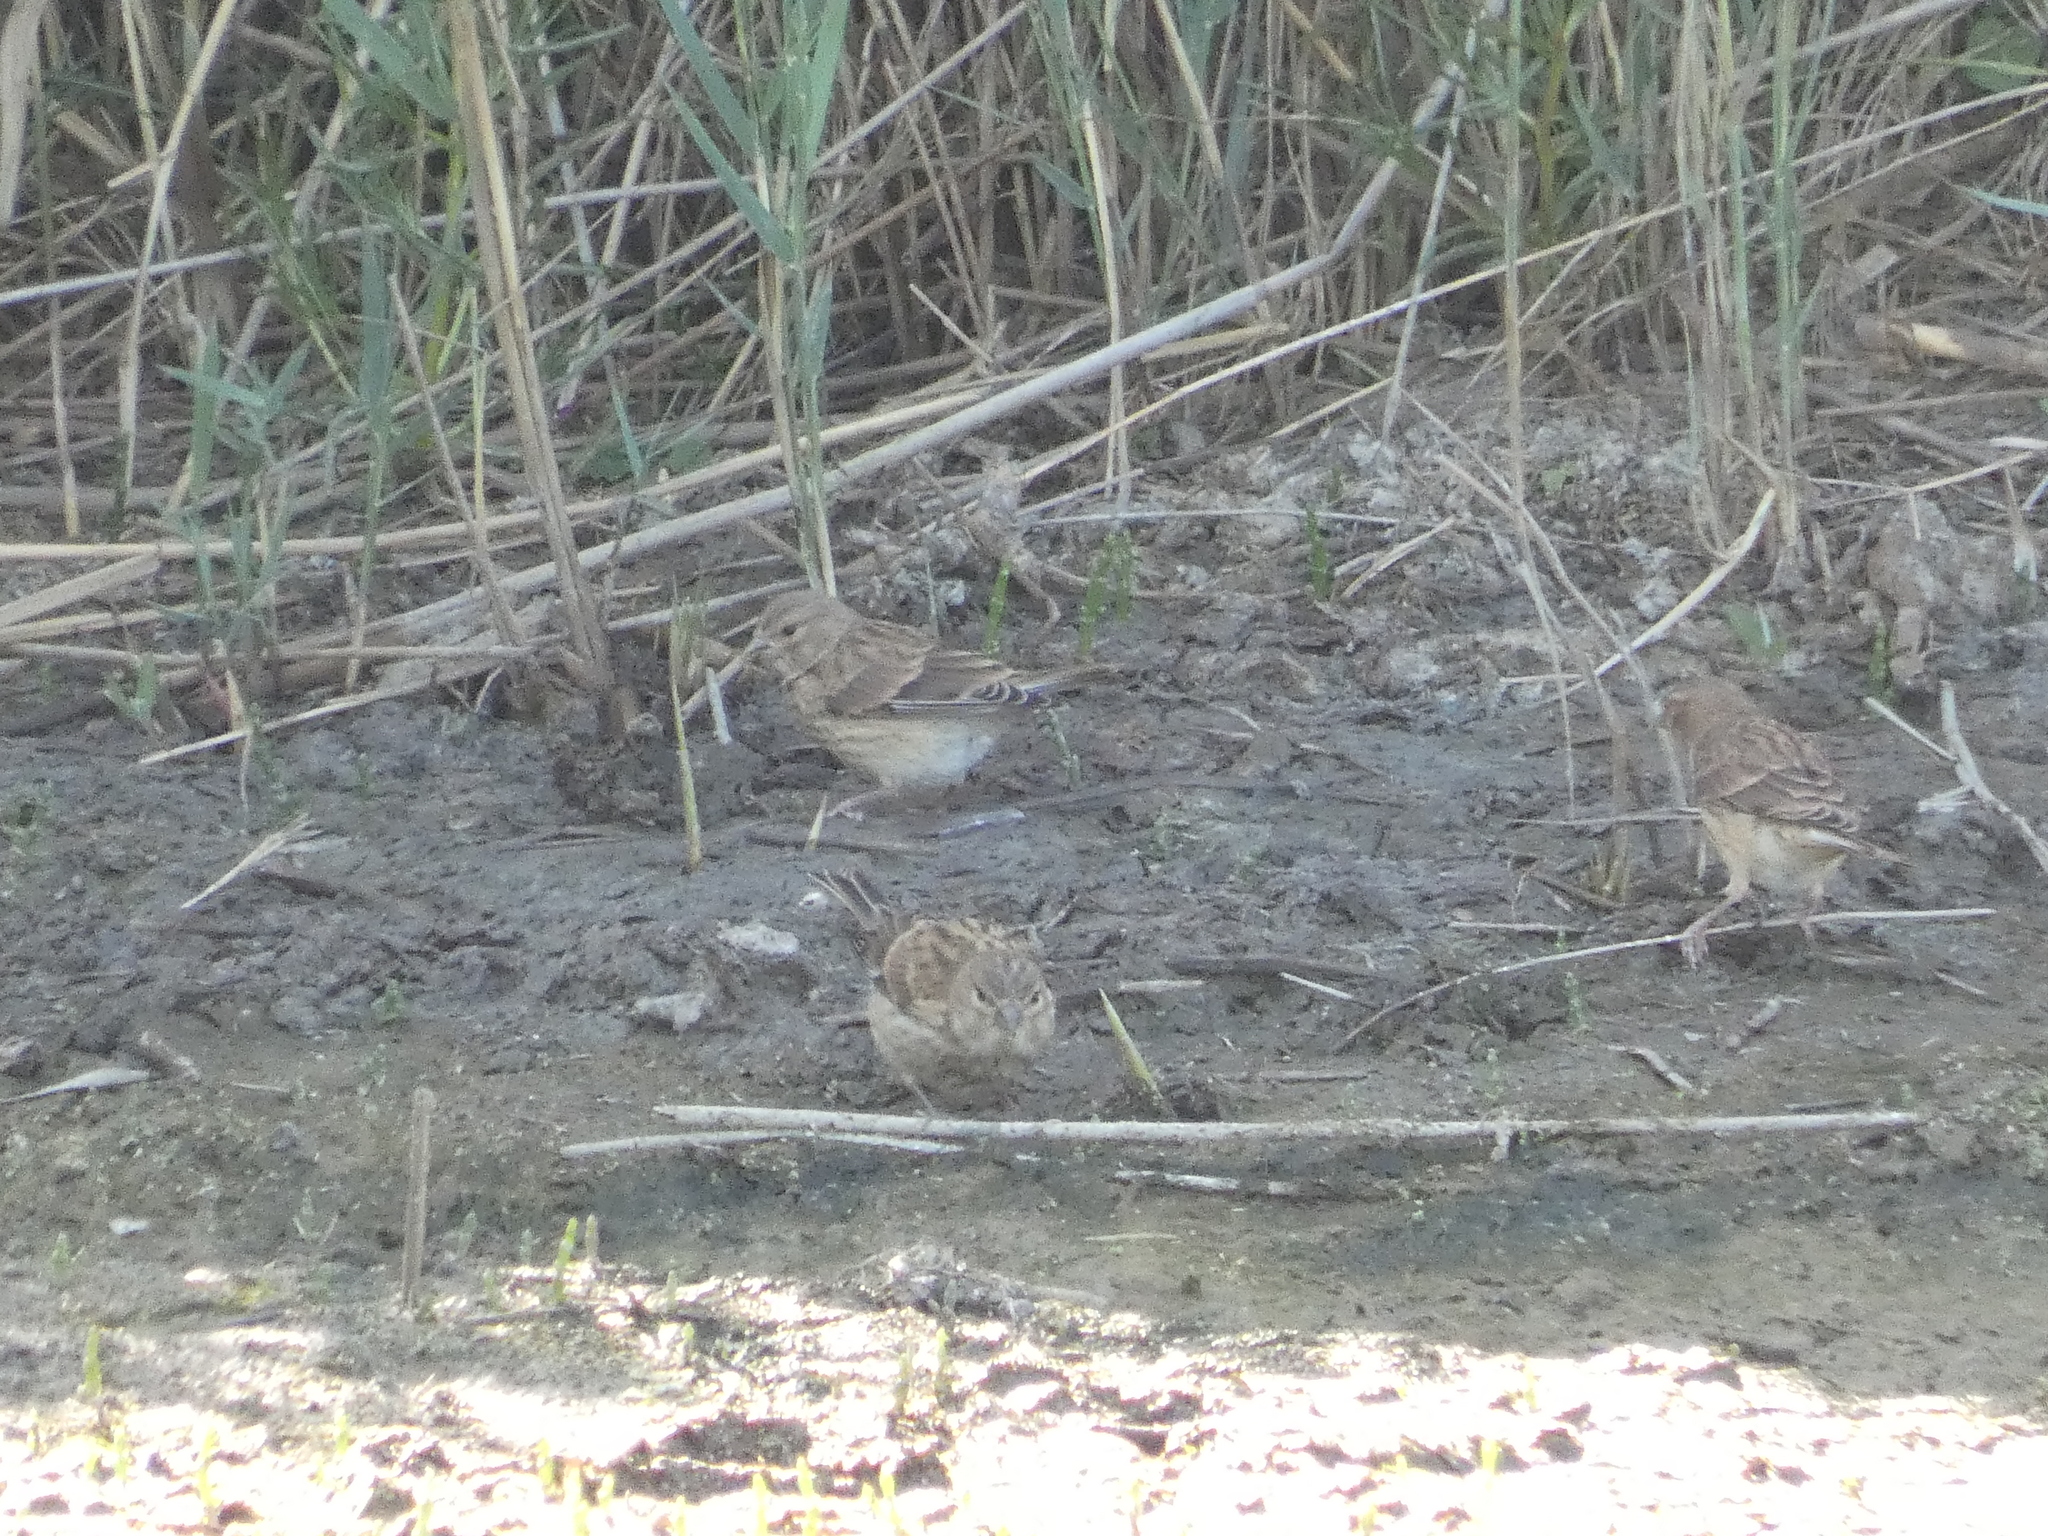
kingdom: Animalia
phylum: Chordata
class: Aves
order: Passeriformes
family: Fringillidae
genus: Linaria
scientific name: Linaria cannabina
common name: Common linnet
